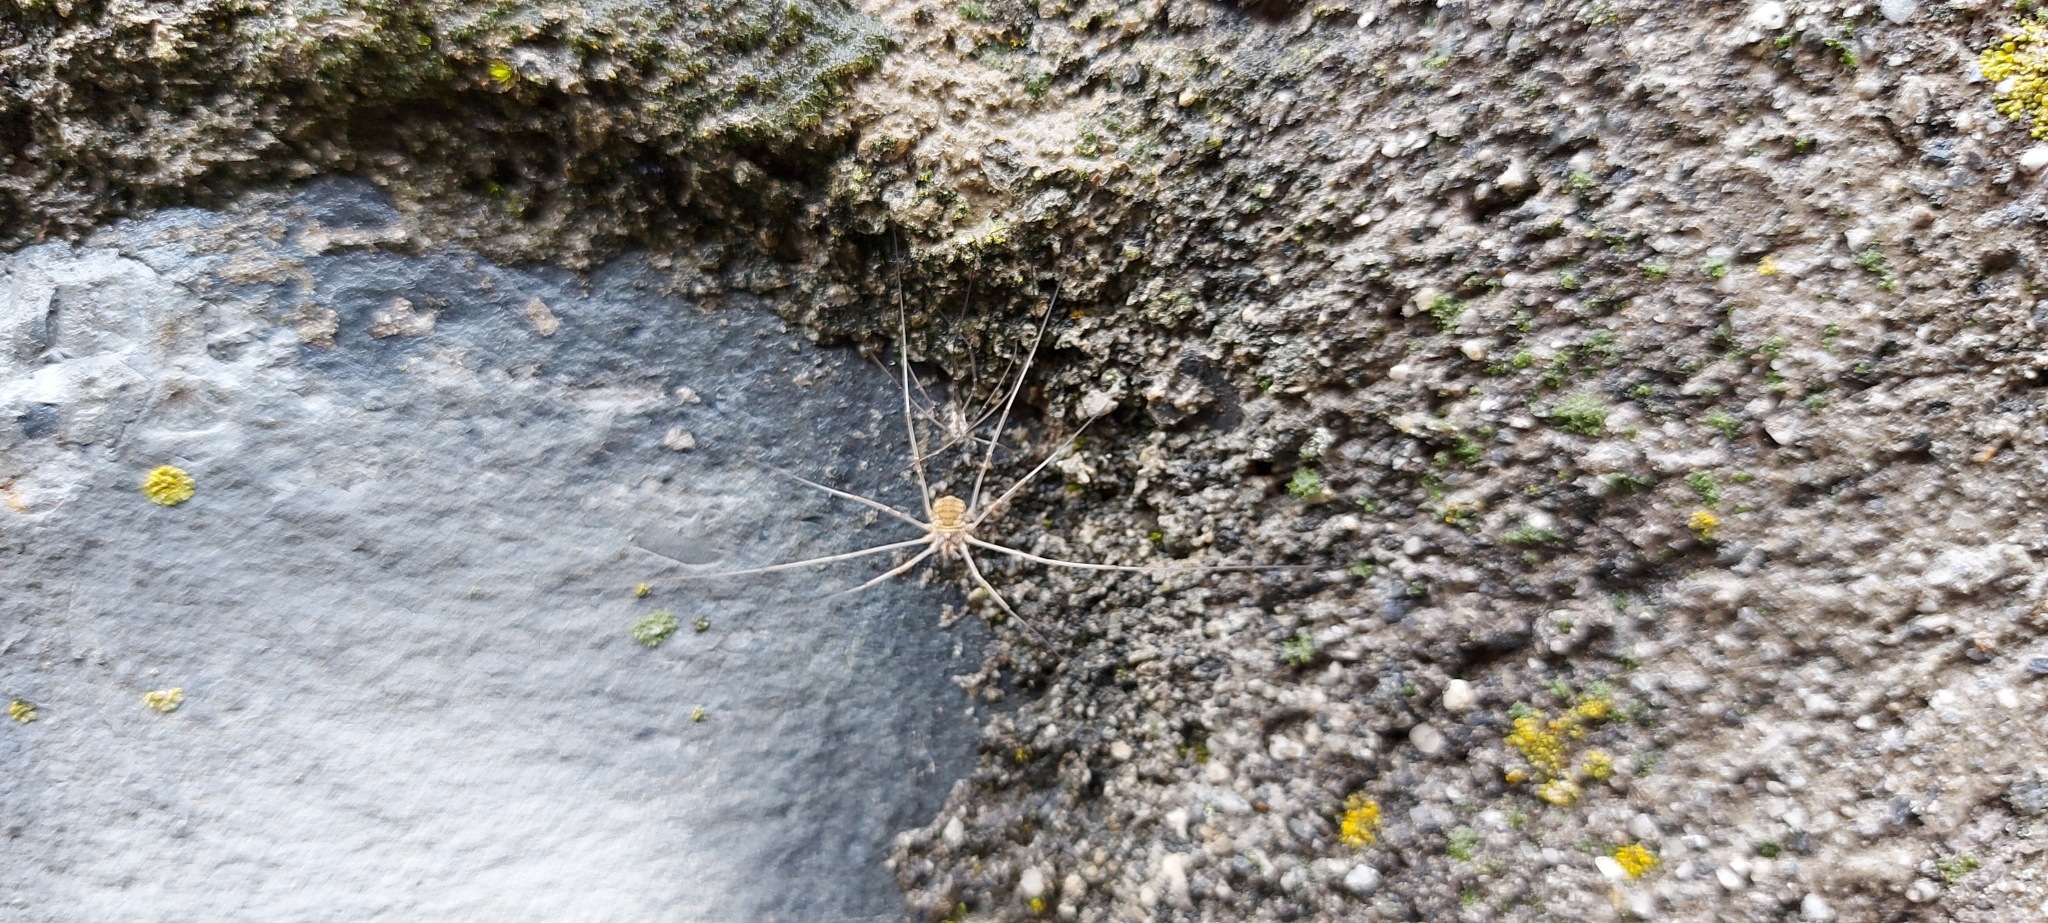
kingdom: Animalia
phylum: Arthropoda
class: Arachnida
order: Opiliones
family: Phalangiidae
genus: Phalangium
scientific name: Phalangium opilio
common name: Daddy longleg
